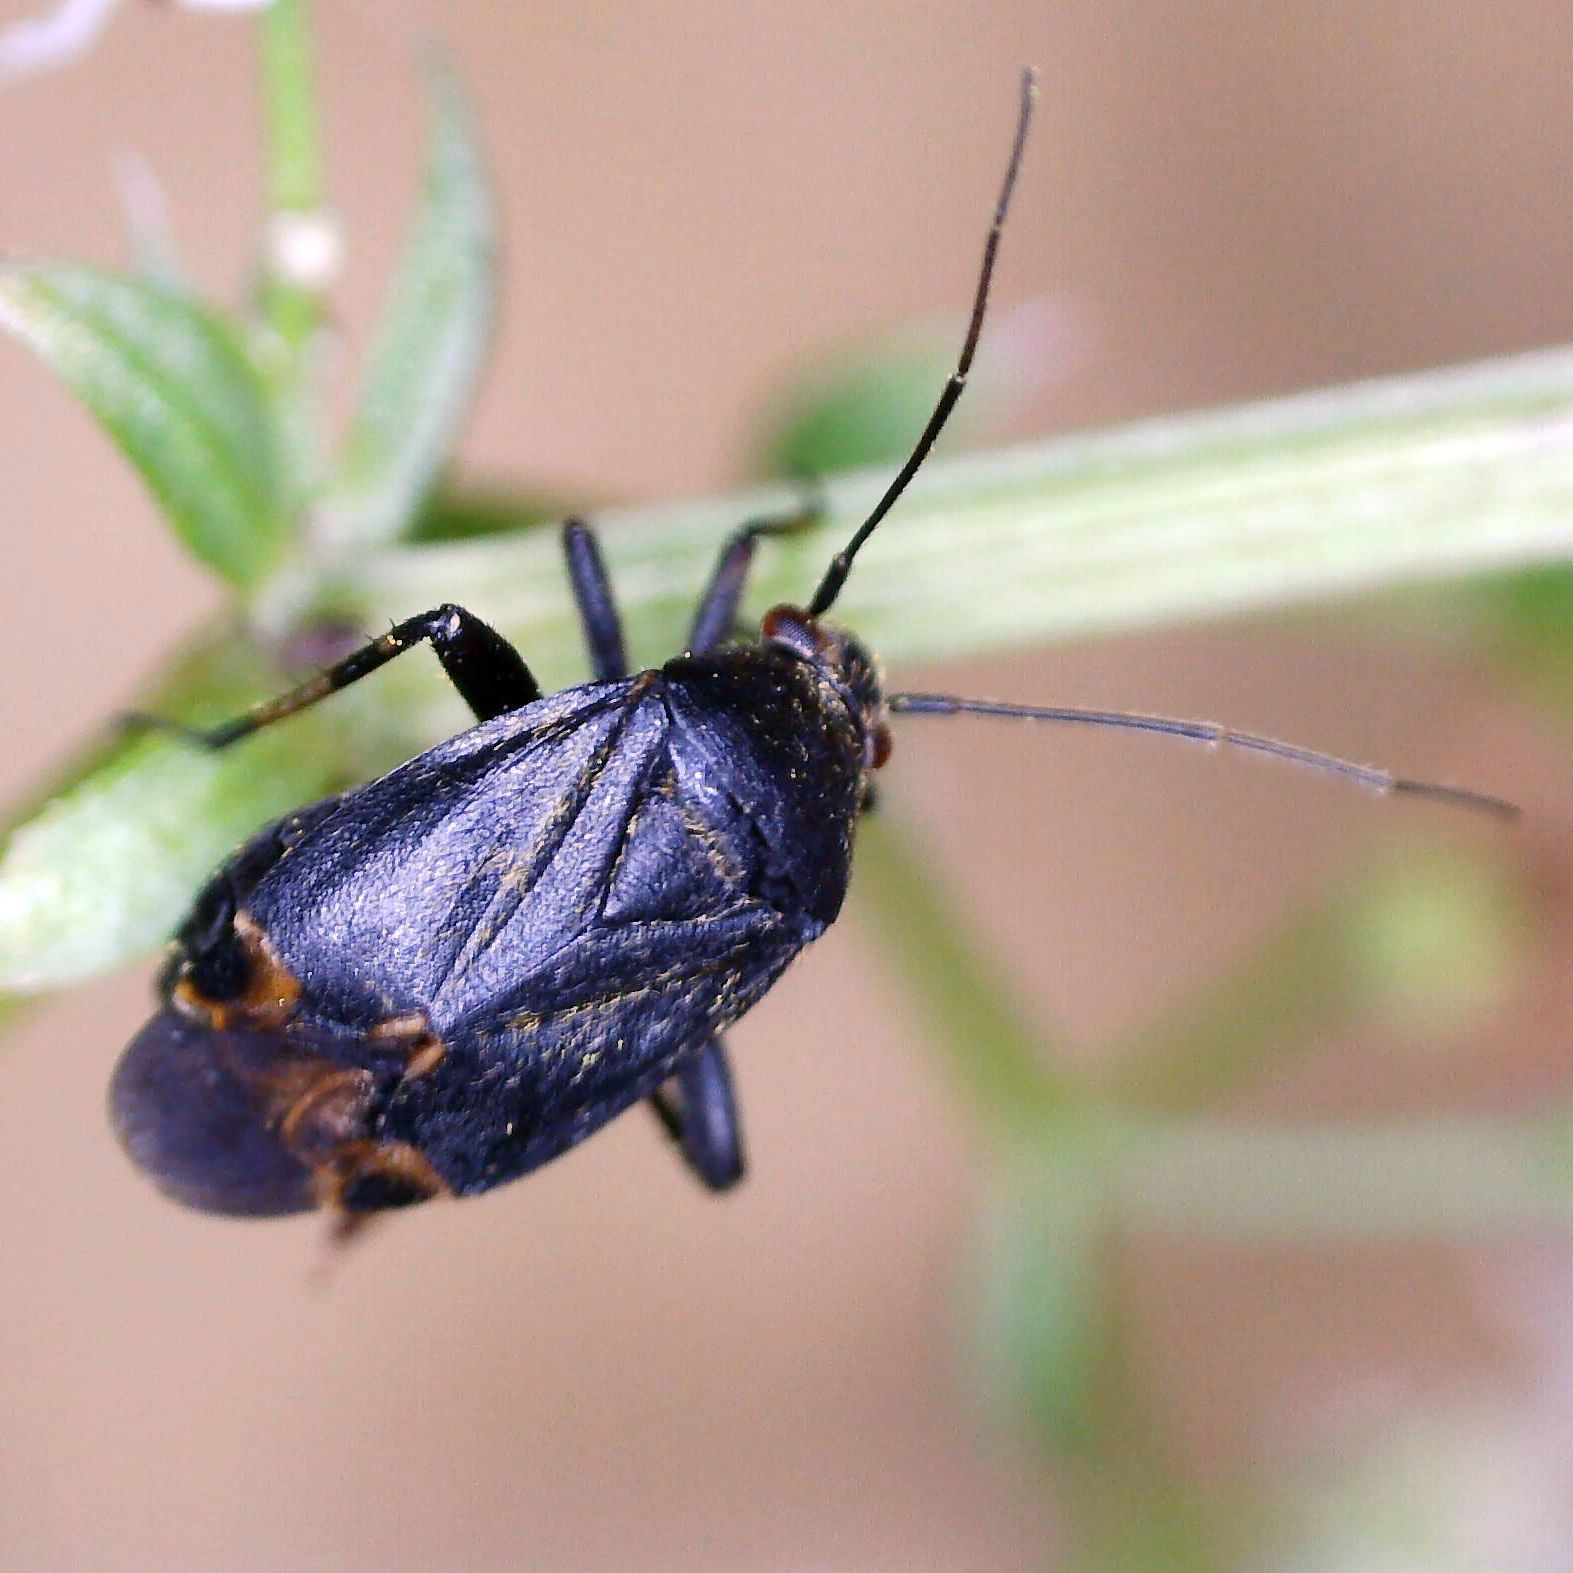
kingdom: Animalia
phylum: Arthropoda
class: Insecta
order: Hemiptera
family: Miridae
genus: Polymerus
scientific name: Polymerus nigritus
